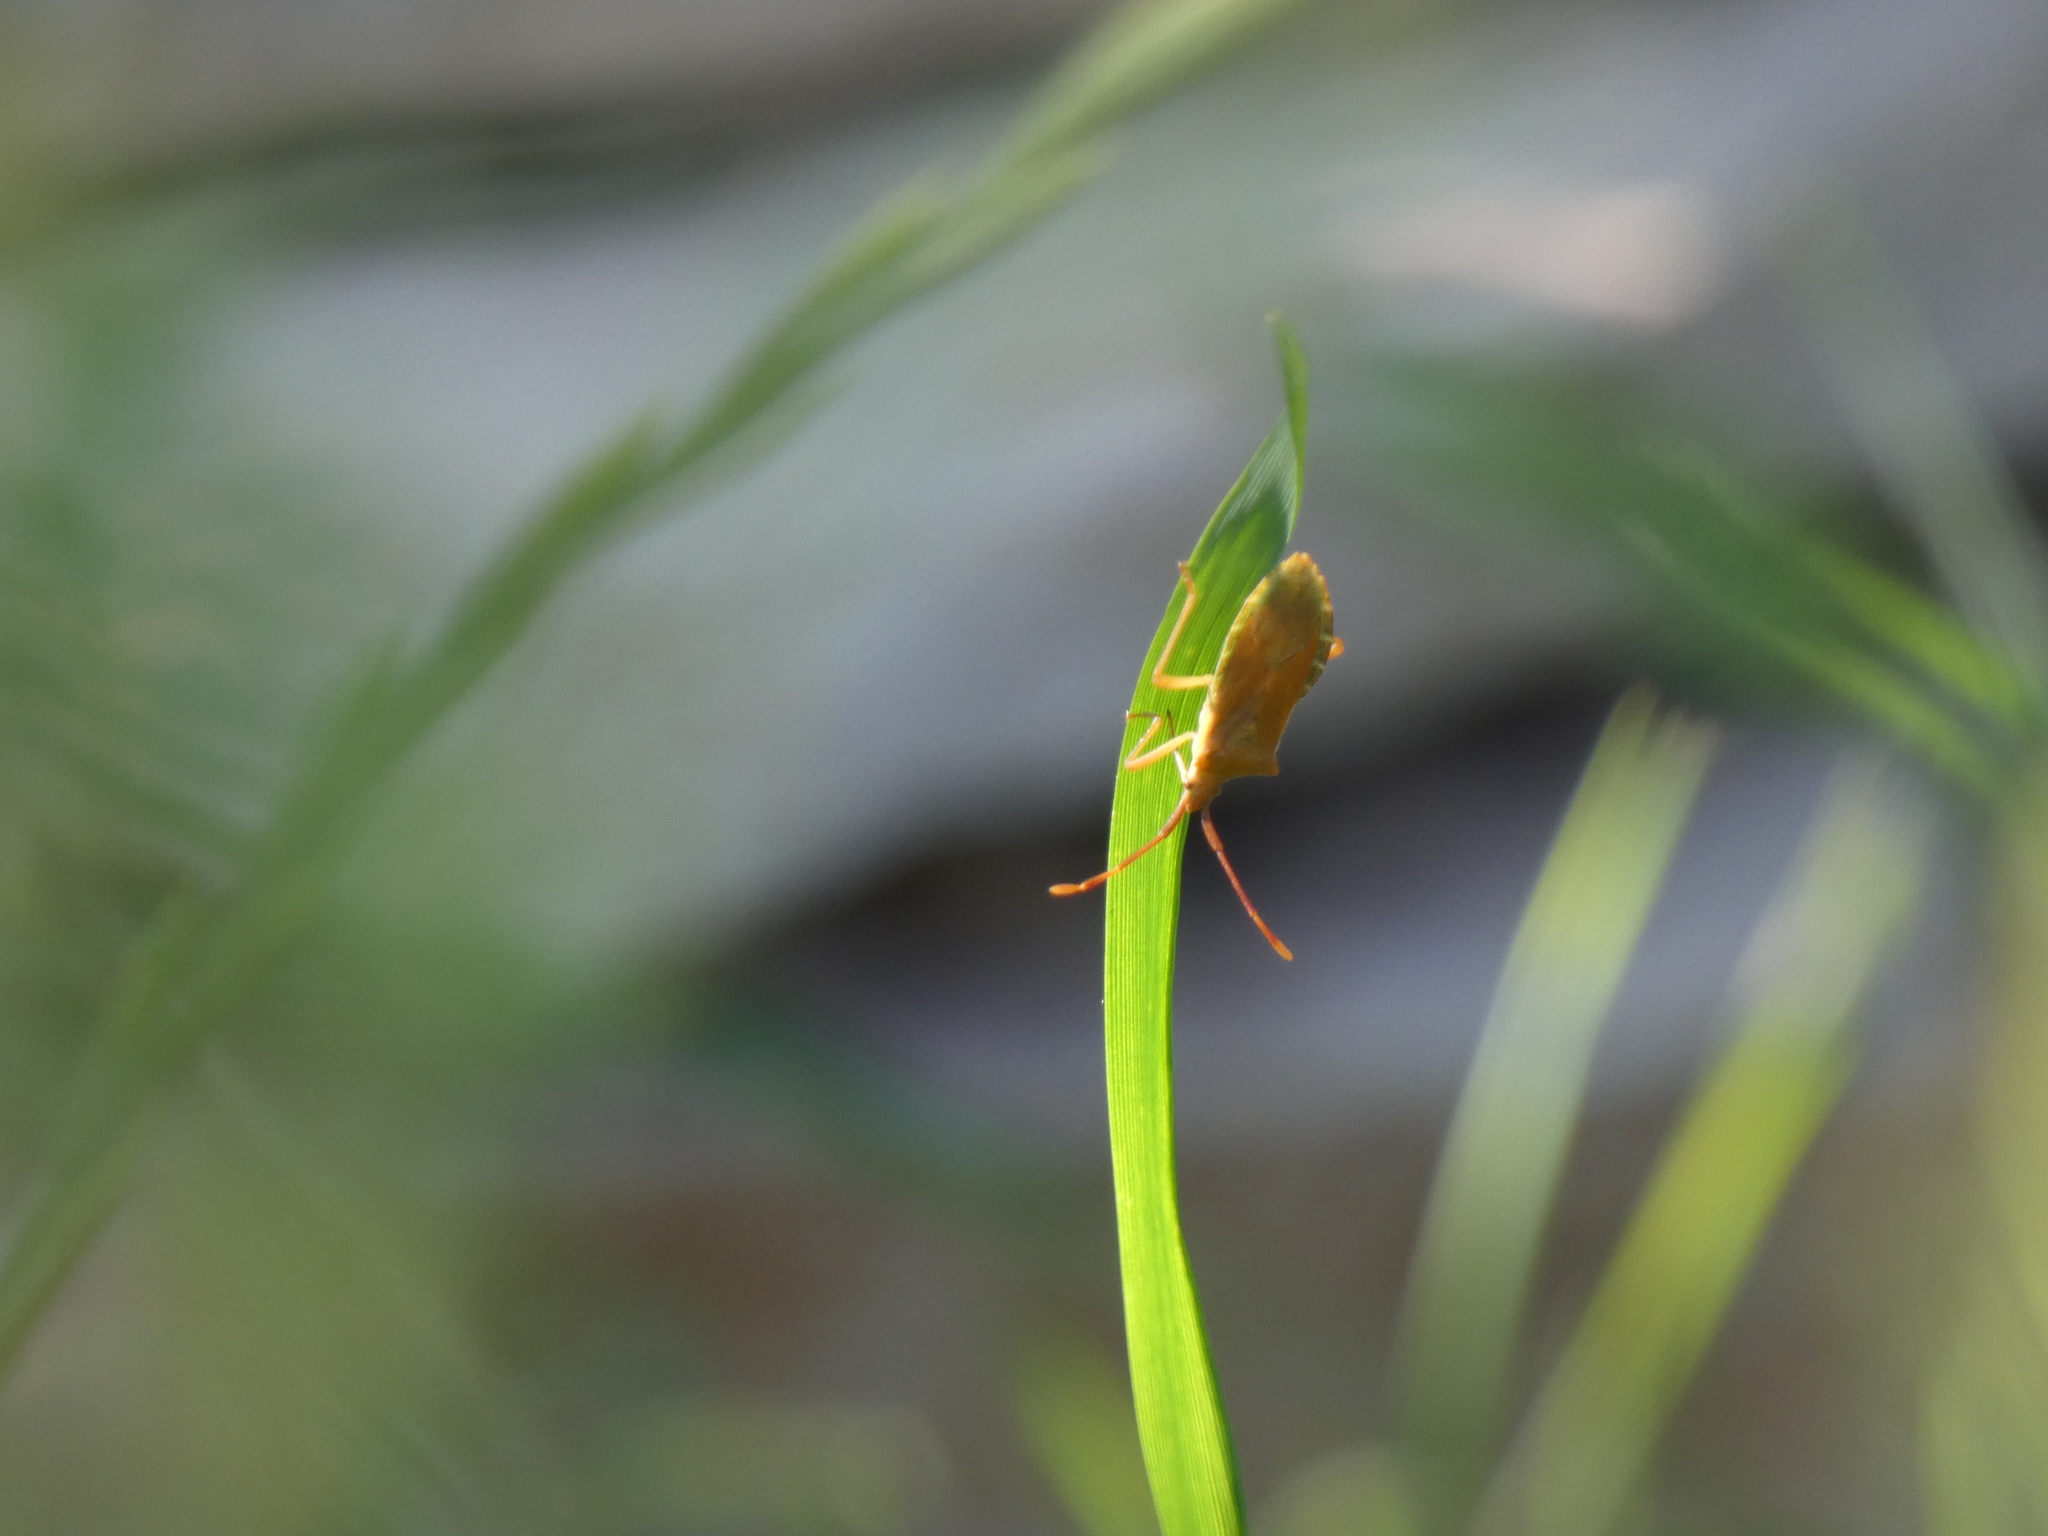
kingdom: Animalia
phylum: Arthropoda
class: Insecta
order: Hemiptera
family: Coreidae
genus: Gonocerus
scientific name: Gonocerus acuteangulatus
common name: Box bug
